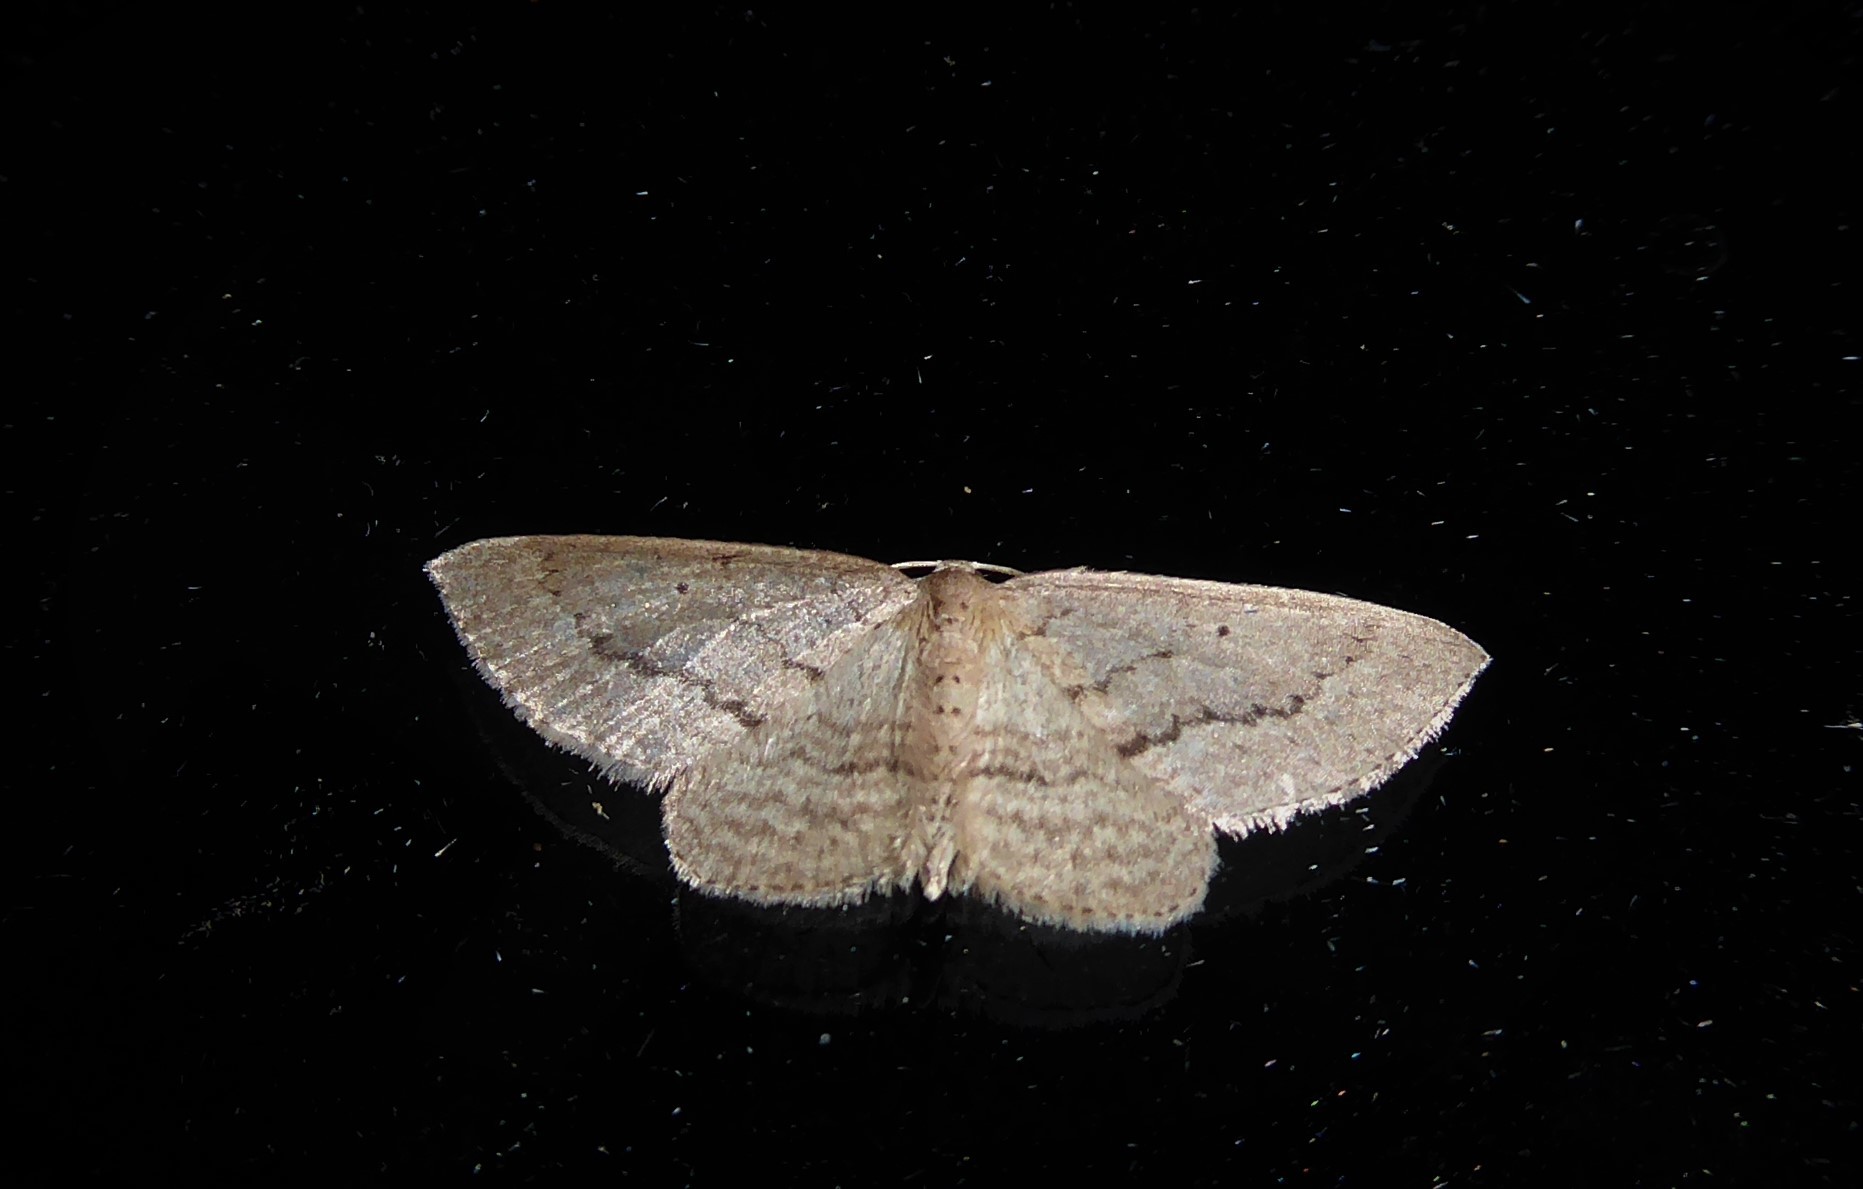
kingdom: Animalia
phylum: Arthropoda
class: Insecta
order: Lepidoptera
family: Geometridae
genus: Poecilasthena
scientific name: Poecilasthena schistaria
